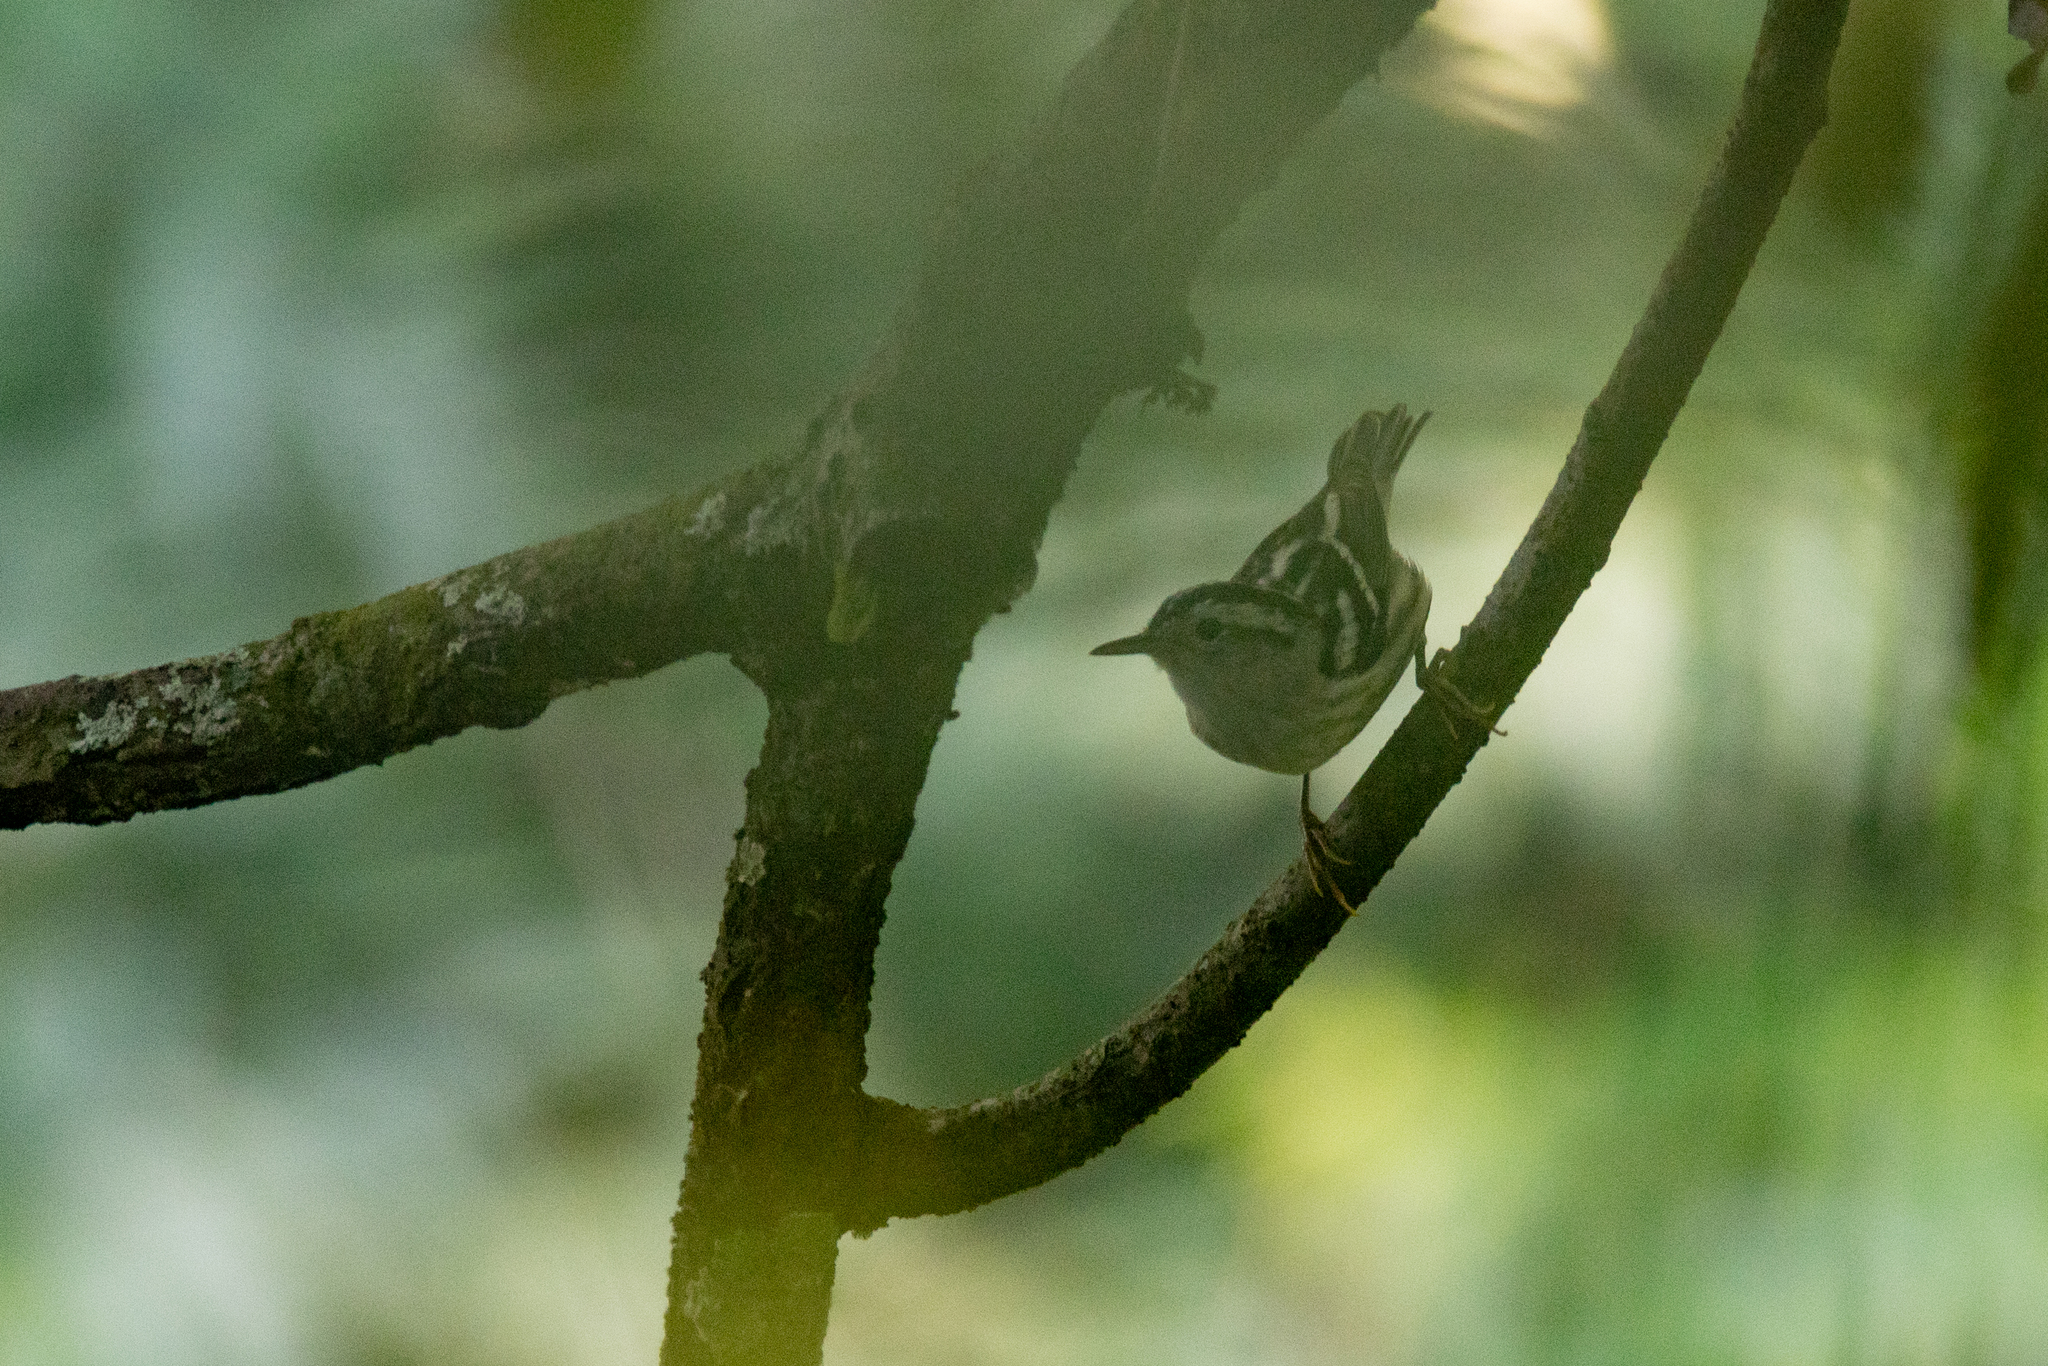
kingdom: Animalia
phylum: Chordata
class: Aves
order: Passeriformes
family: Parulidae
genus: Mniotilta
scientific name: Mniotilta varia
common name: Black-and-white warbler
